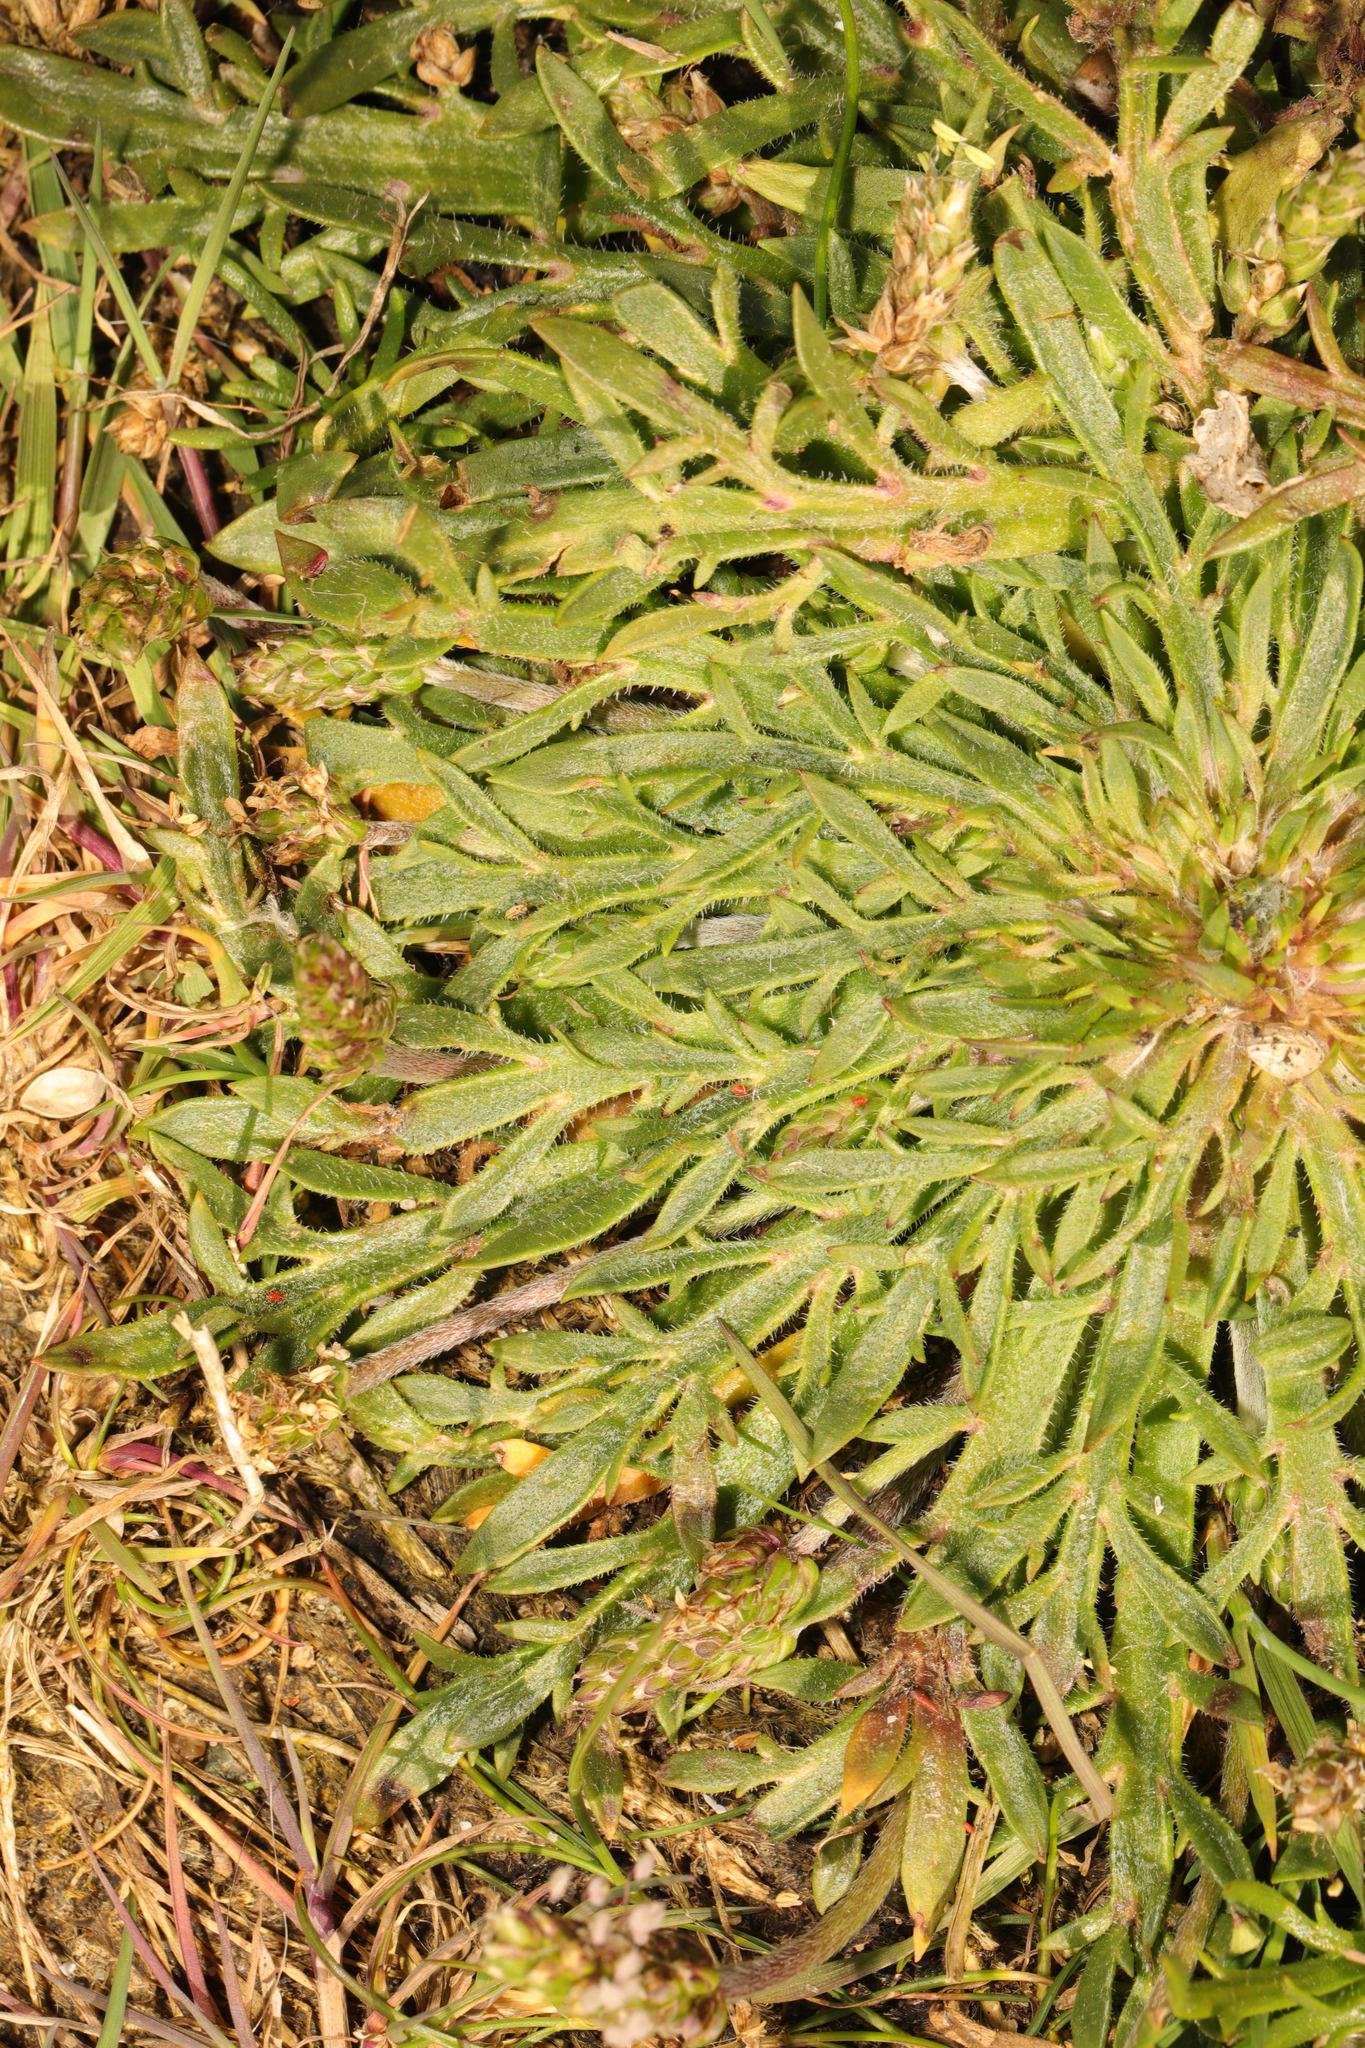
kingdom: Plantae
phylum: Tracheophyta
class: Magnoliopsida
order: Lamiales
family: Plantaginaceae
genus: Plantago
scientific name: Plantago coronopus
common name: Buck's-horn plantain
